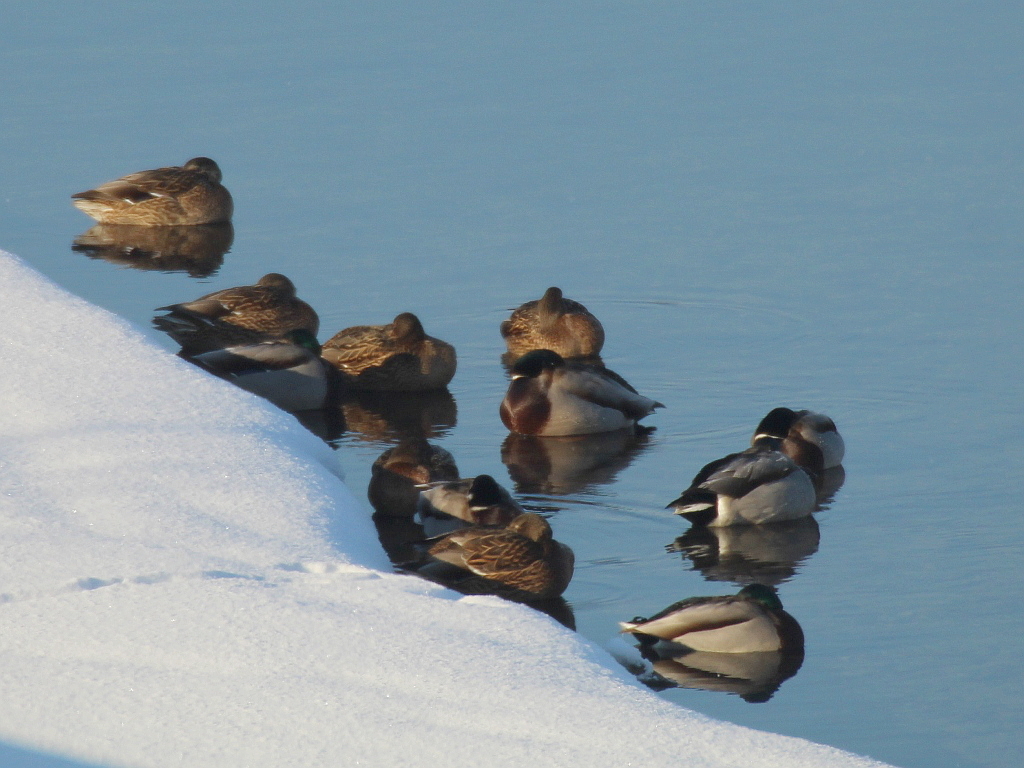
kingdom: Animalia
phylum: Chordata
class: Aves
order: Anseriformes
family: Anatidae
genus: Anas
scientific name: Anas platyrhynchos
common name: Mallard
